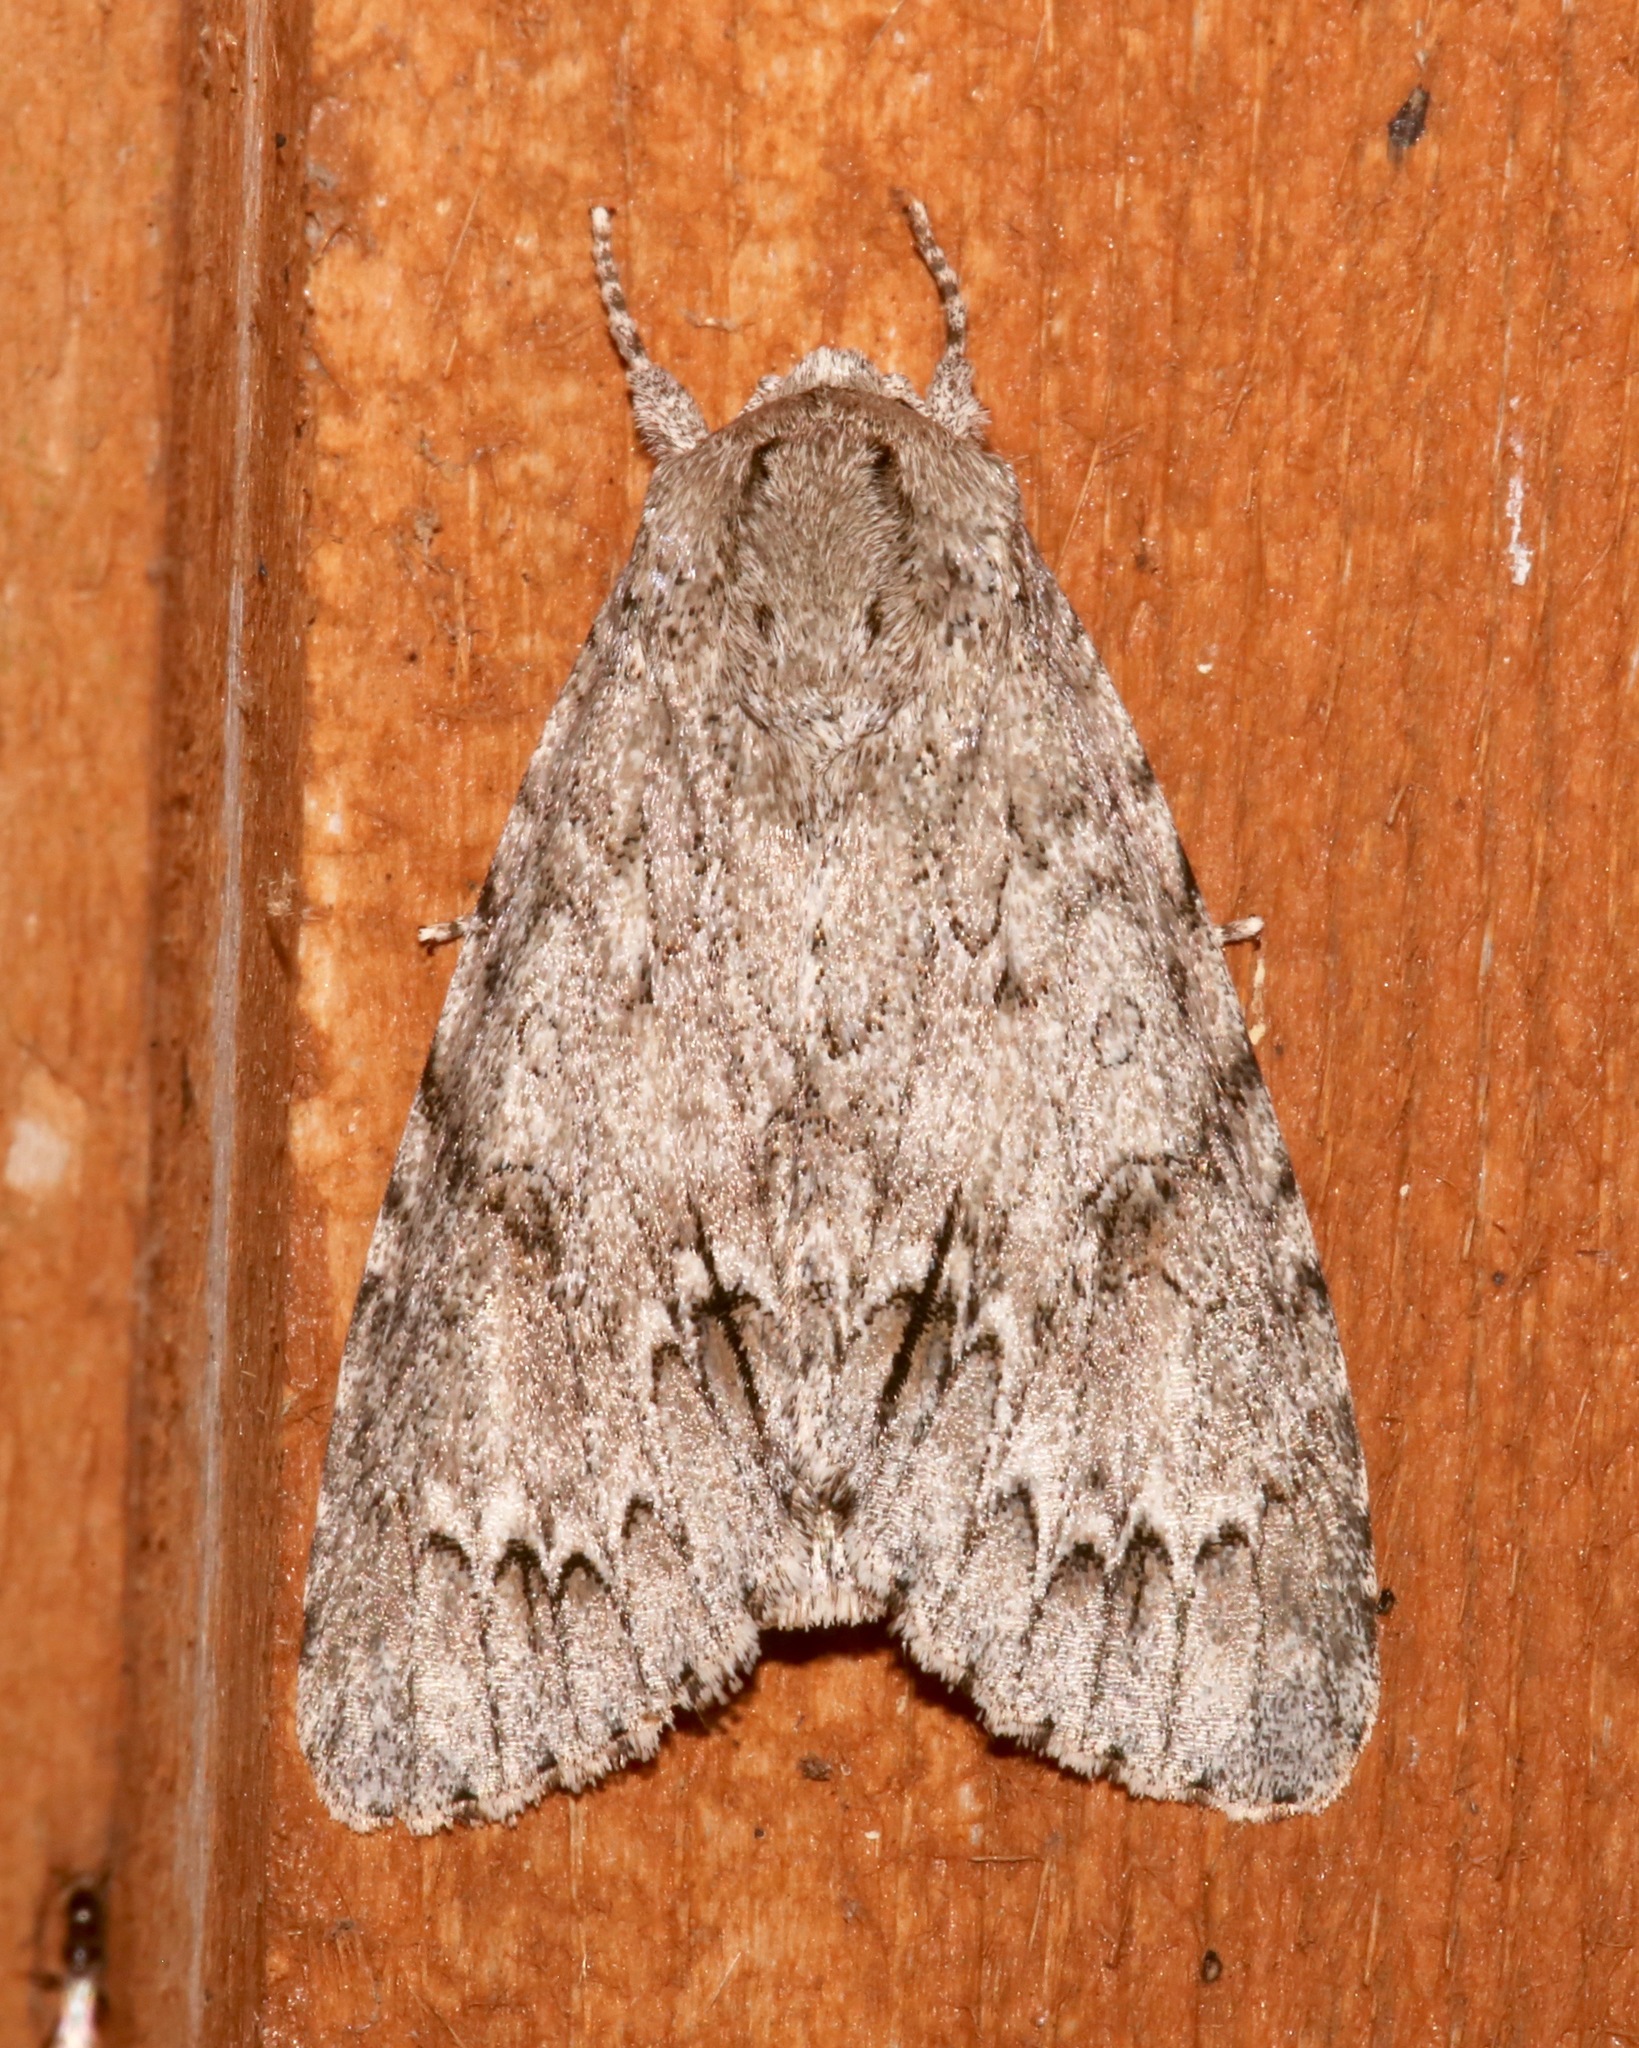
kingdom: Animalia
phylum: Arthropoda
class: Insecta
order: Lepidoptera
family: Noctuidae
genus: Acronicta
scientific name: Acronicta americana
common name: American dagger
